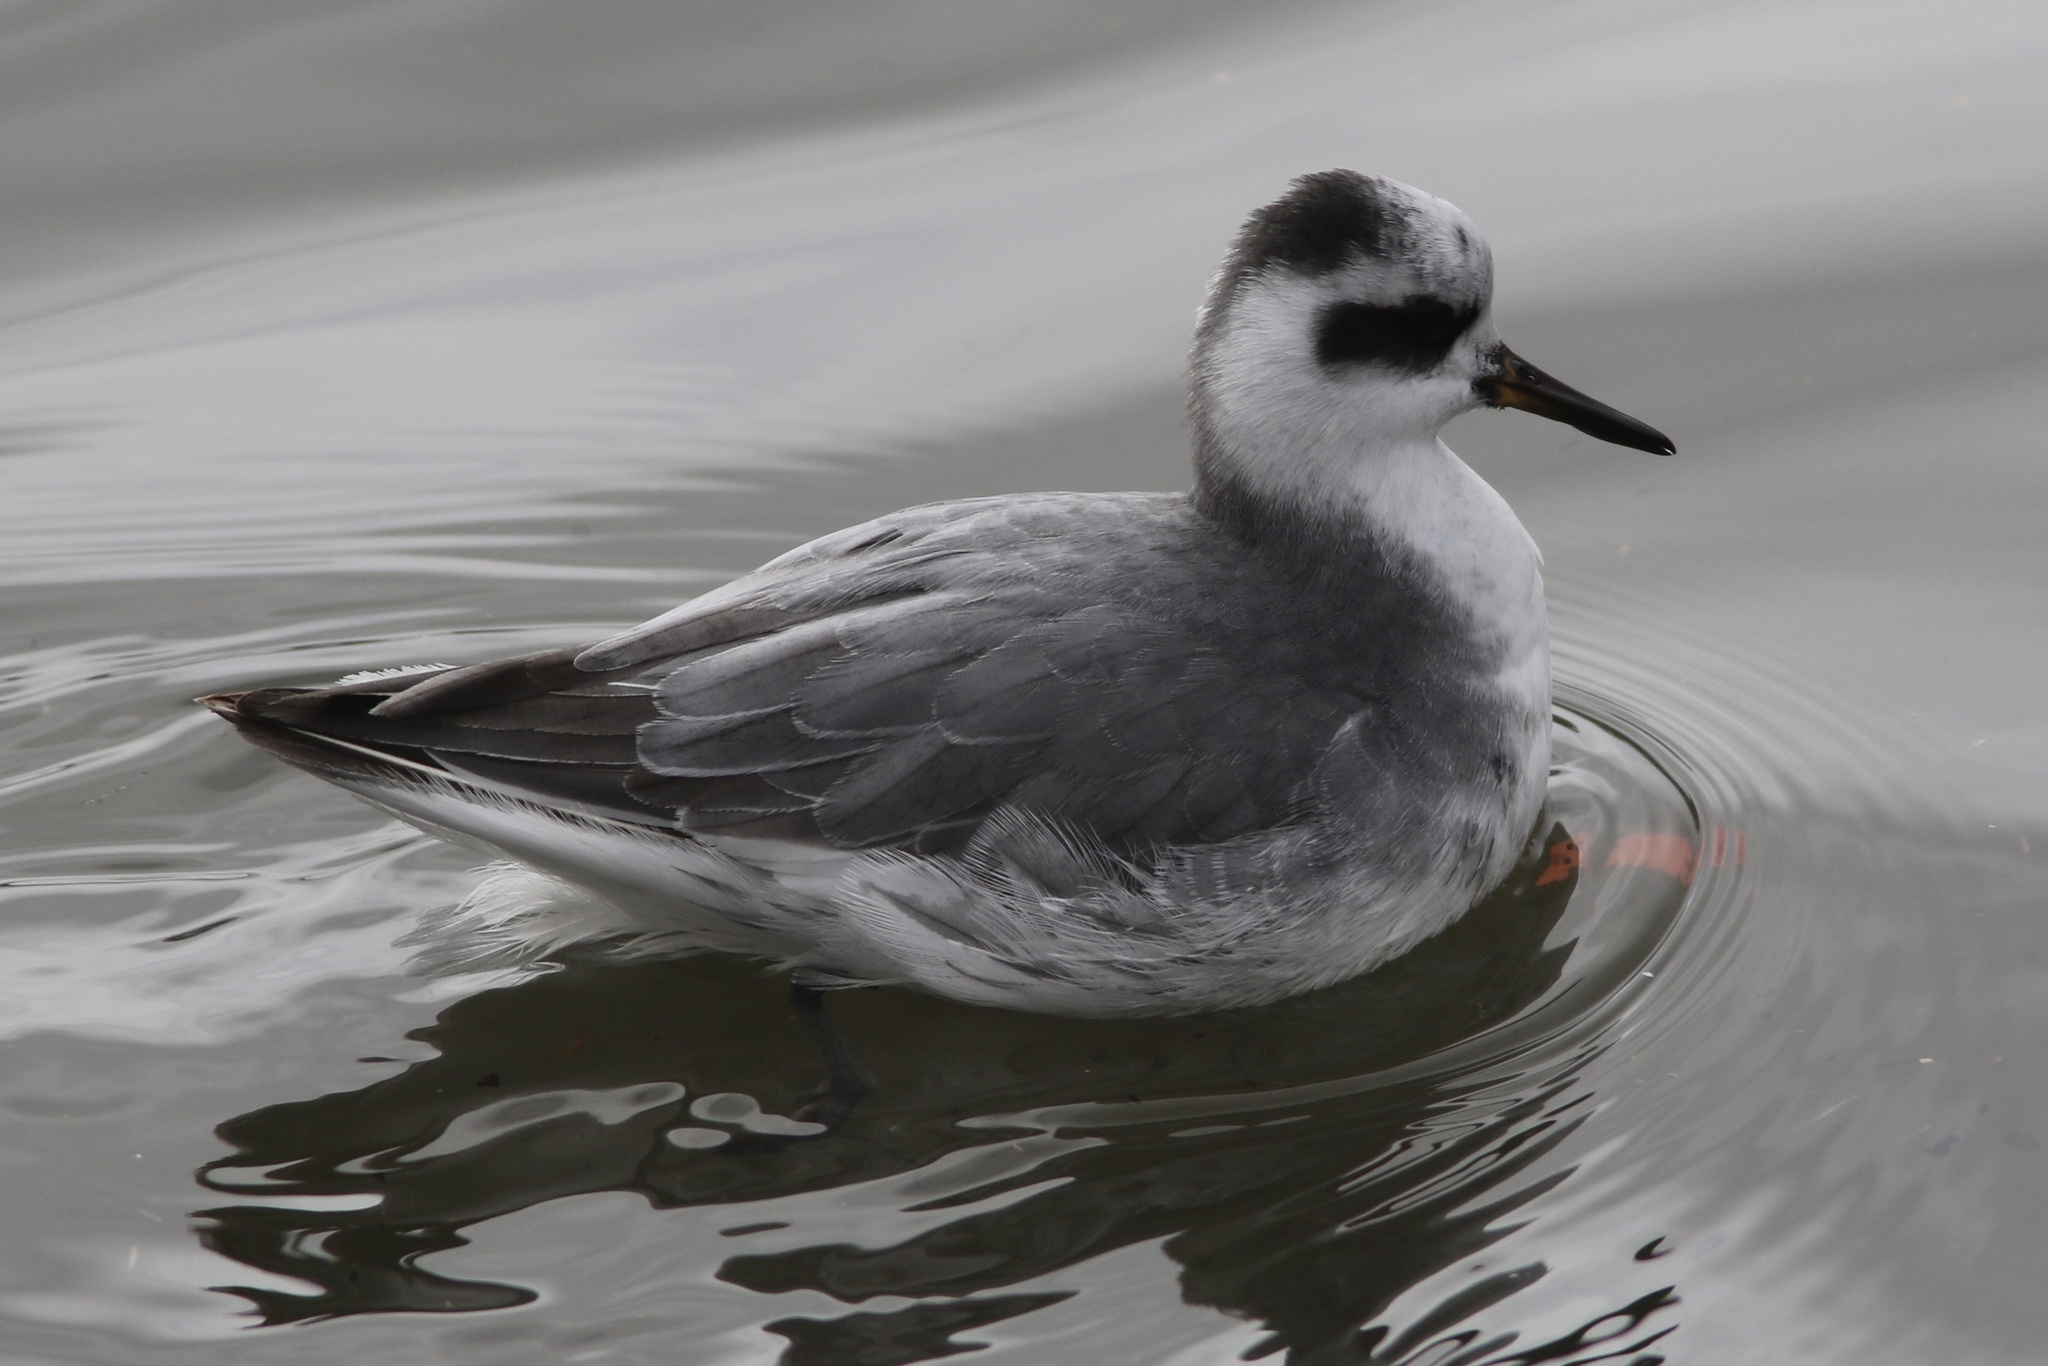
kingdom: Animalia
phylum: Chordata
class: Aves
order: Charadriiformes
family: Scolopacidae
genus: Phalaropus
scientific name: Phalaropus fulicarius
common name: Red phalarope
